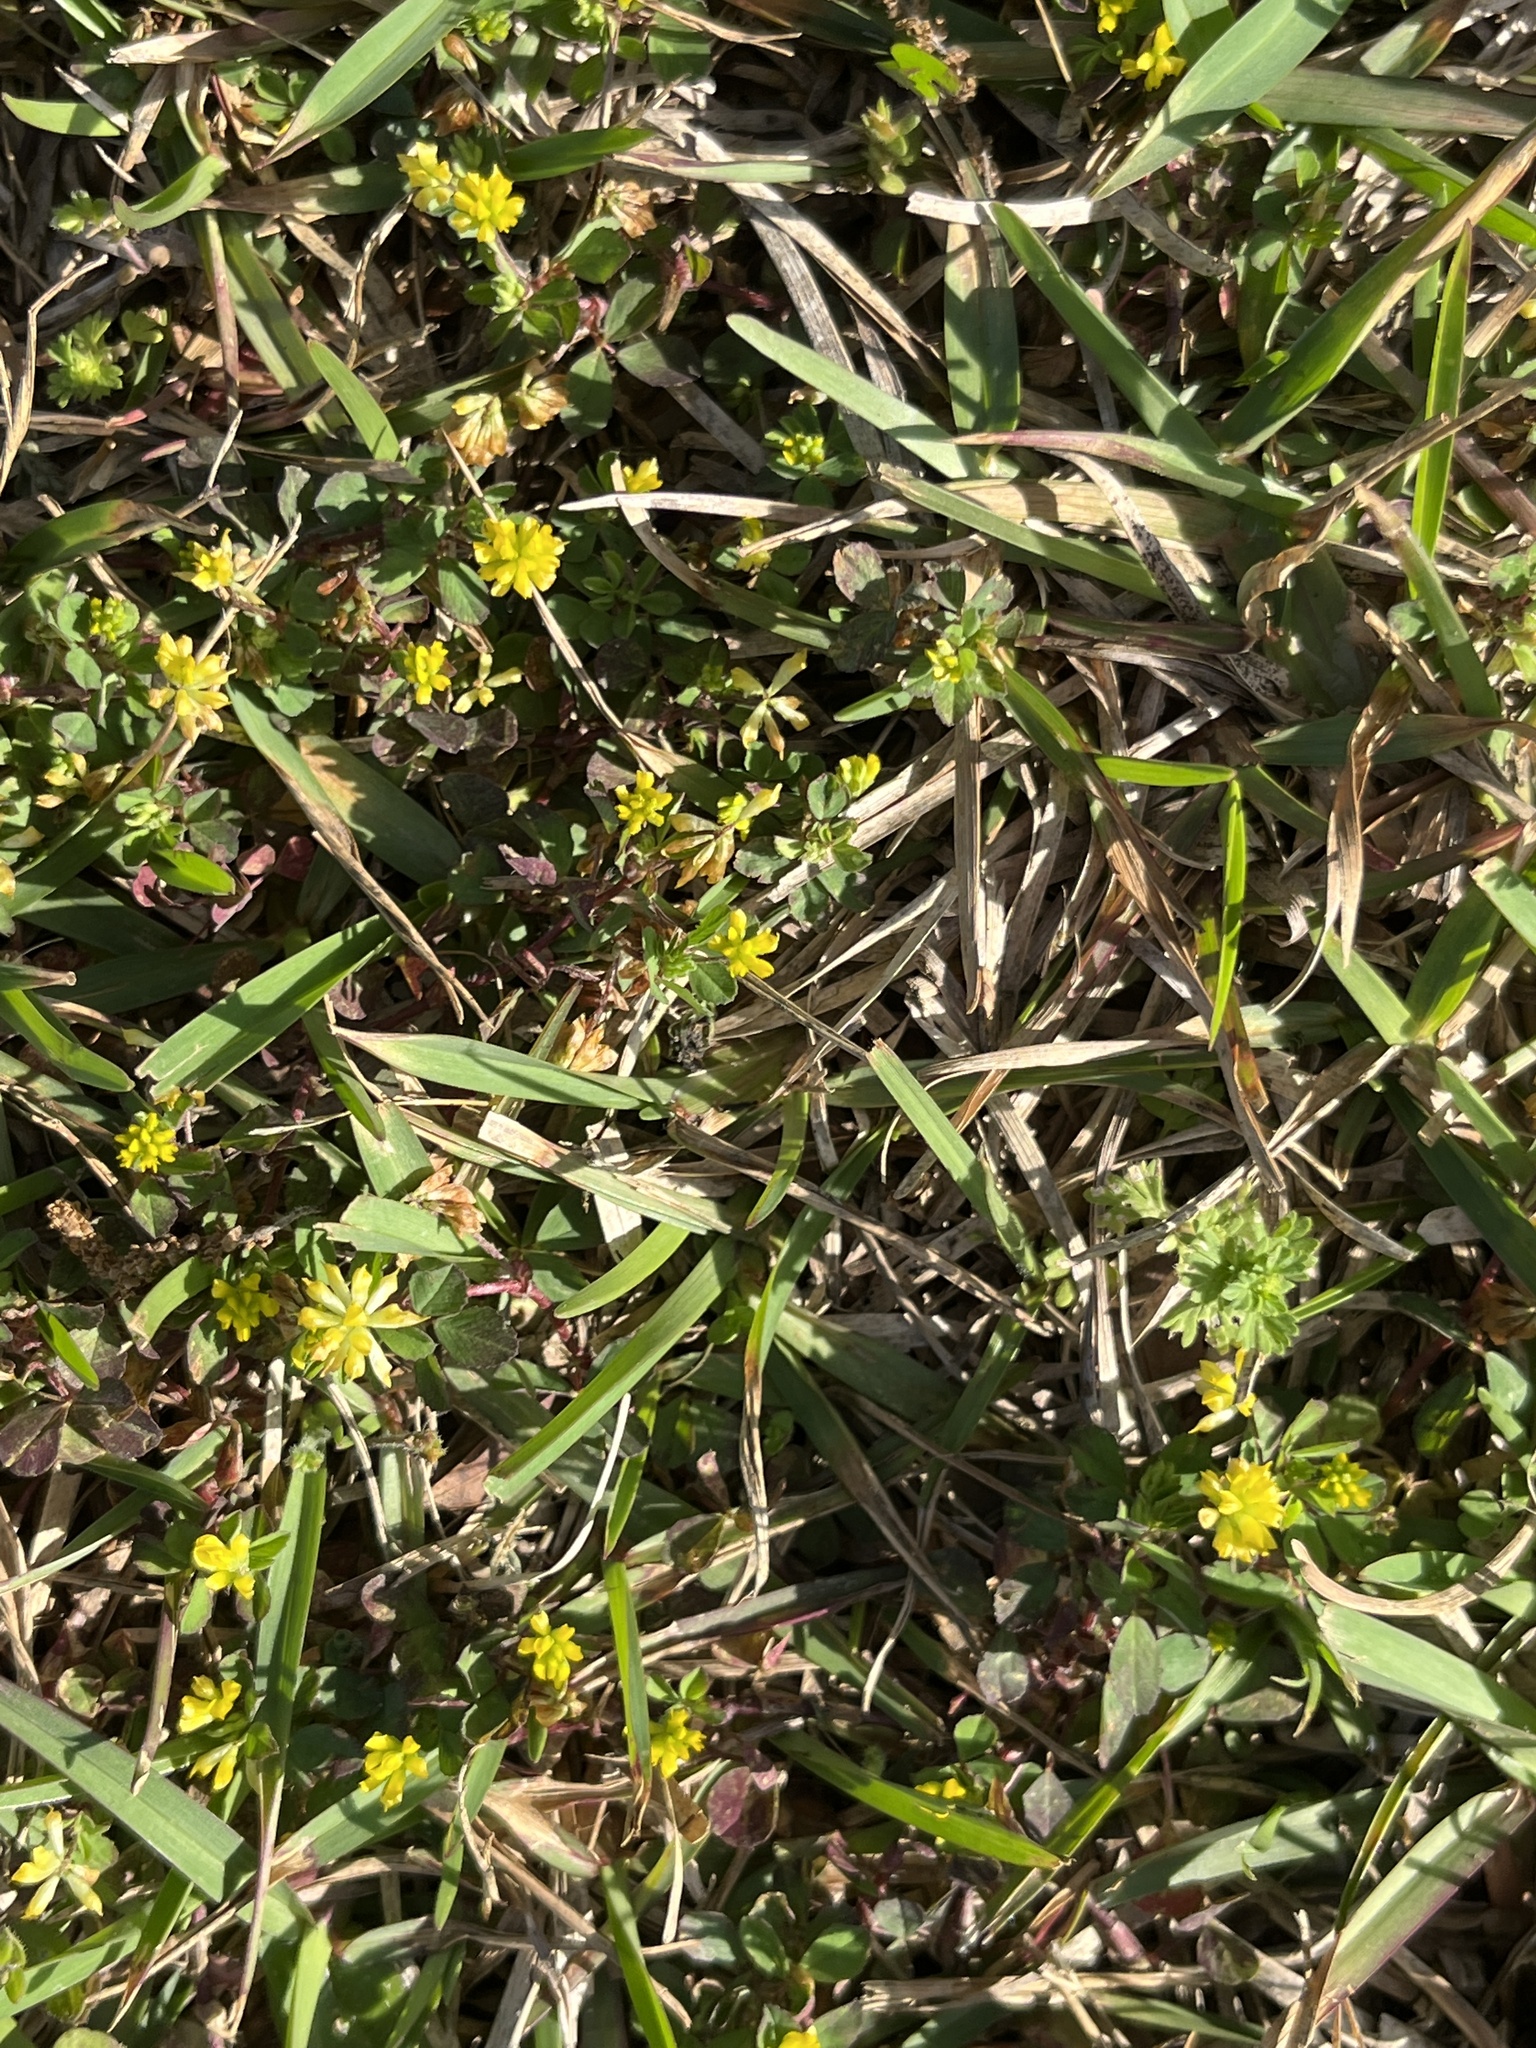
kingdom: Plantae
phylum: Tracheophyta
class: Magnoliopsida
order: Fabales
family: Fabaceae
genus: Trifolium
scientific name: Trifolium dubium
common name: Suckling clover
